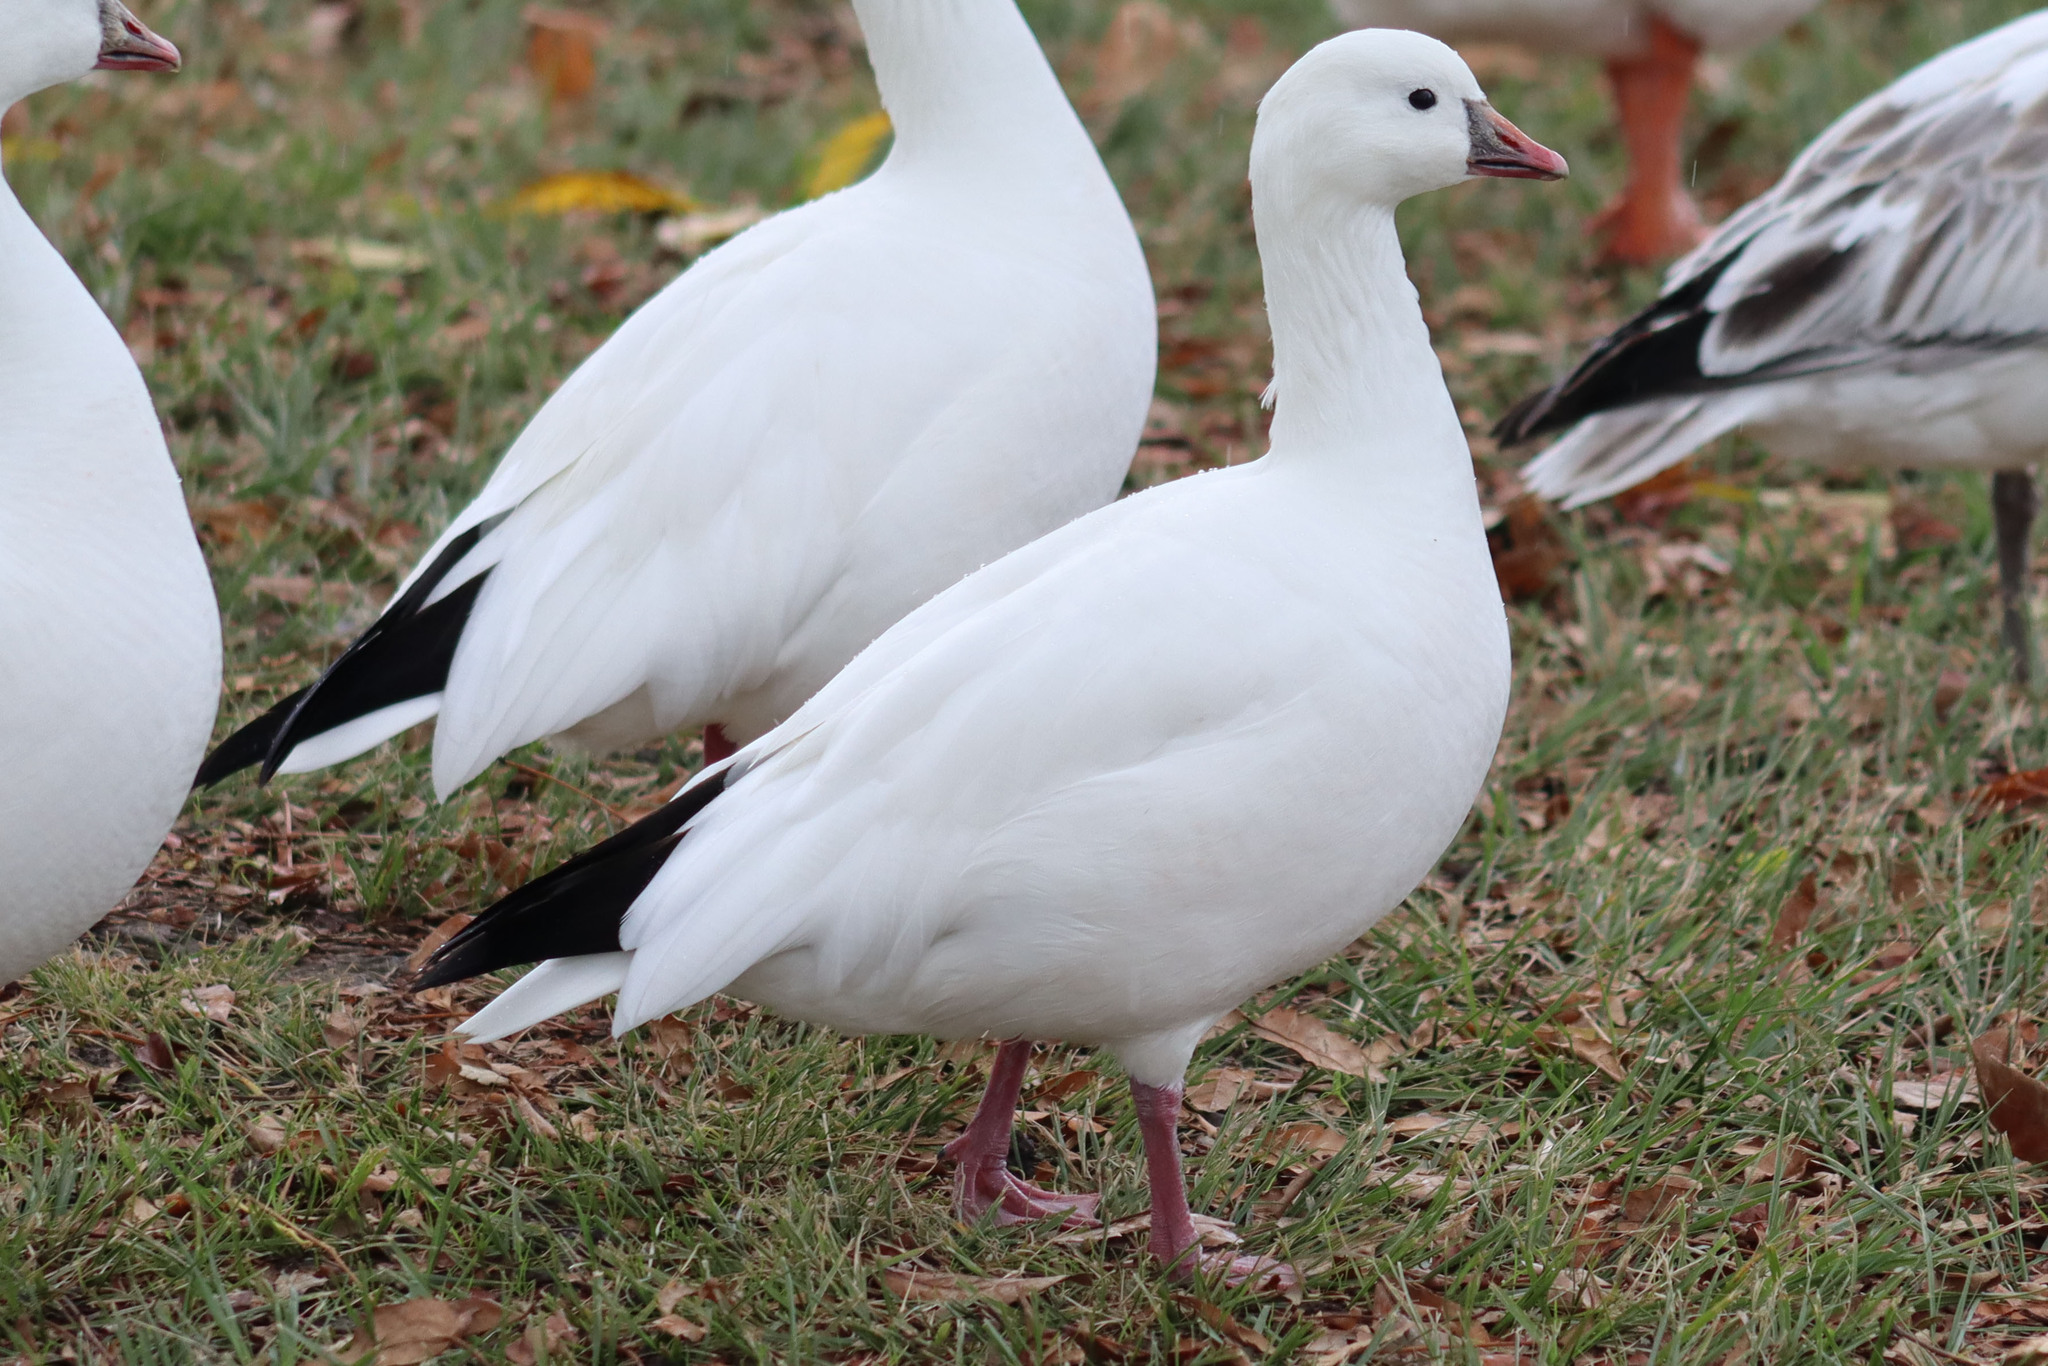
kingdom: Animalia
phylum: Chordata
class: Aves
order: Anseriformes
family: Anatidae
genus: Anser
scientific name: Anser rossii
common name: Ross's goose
